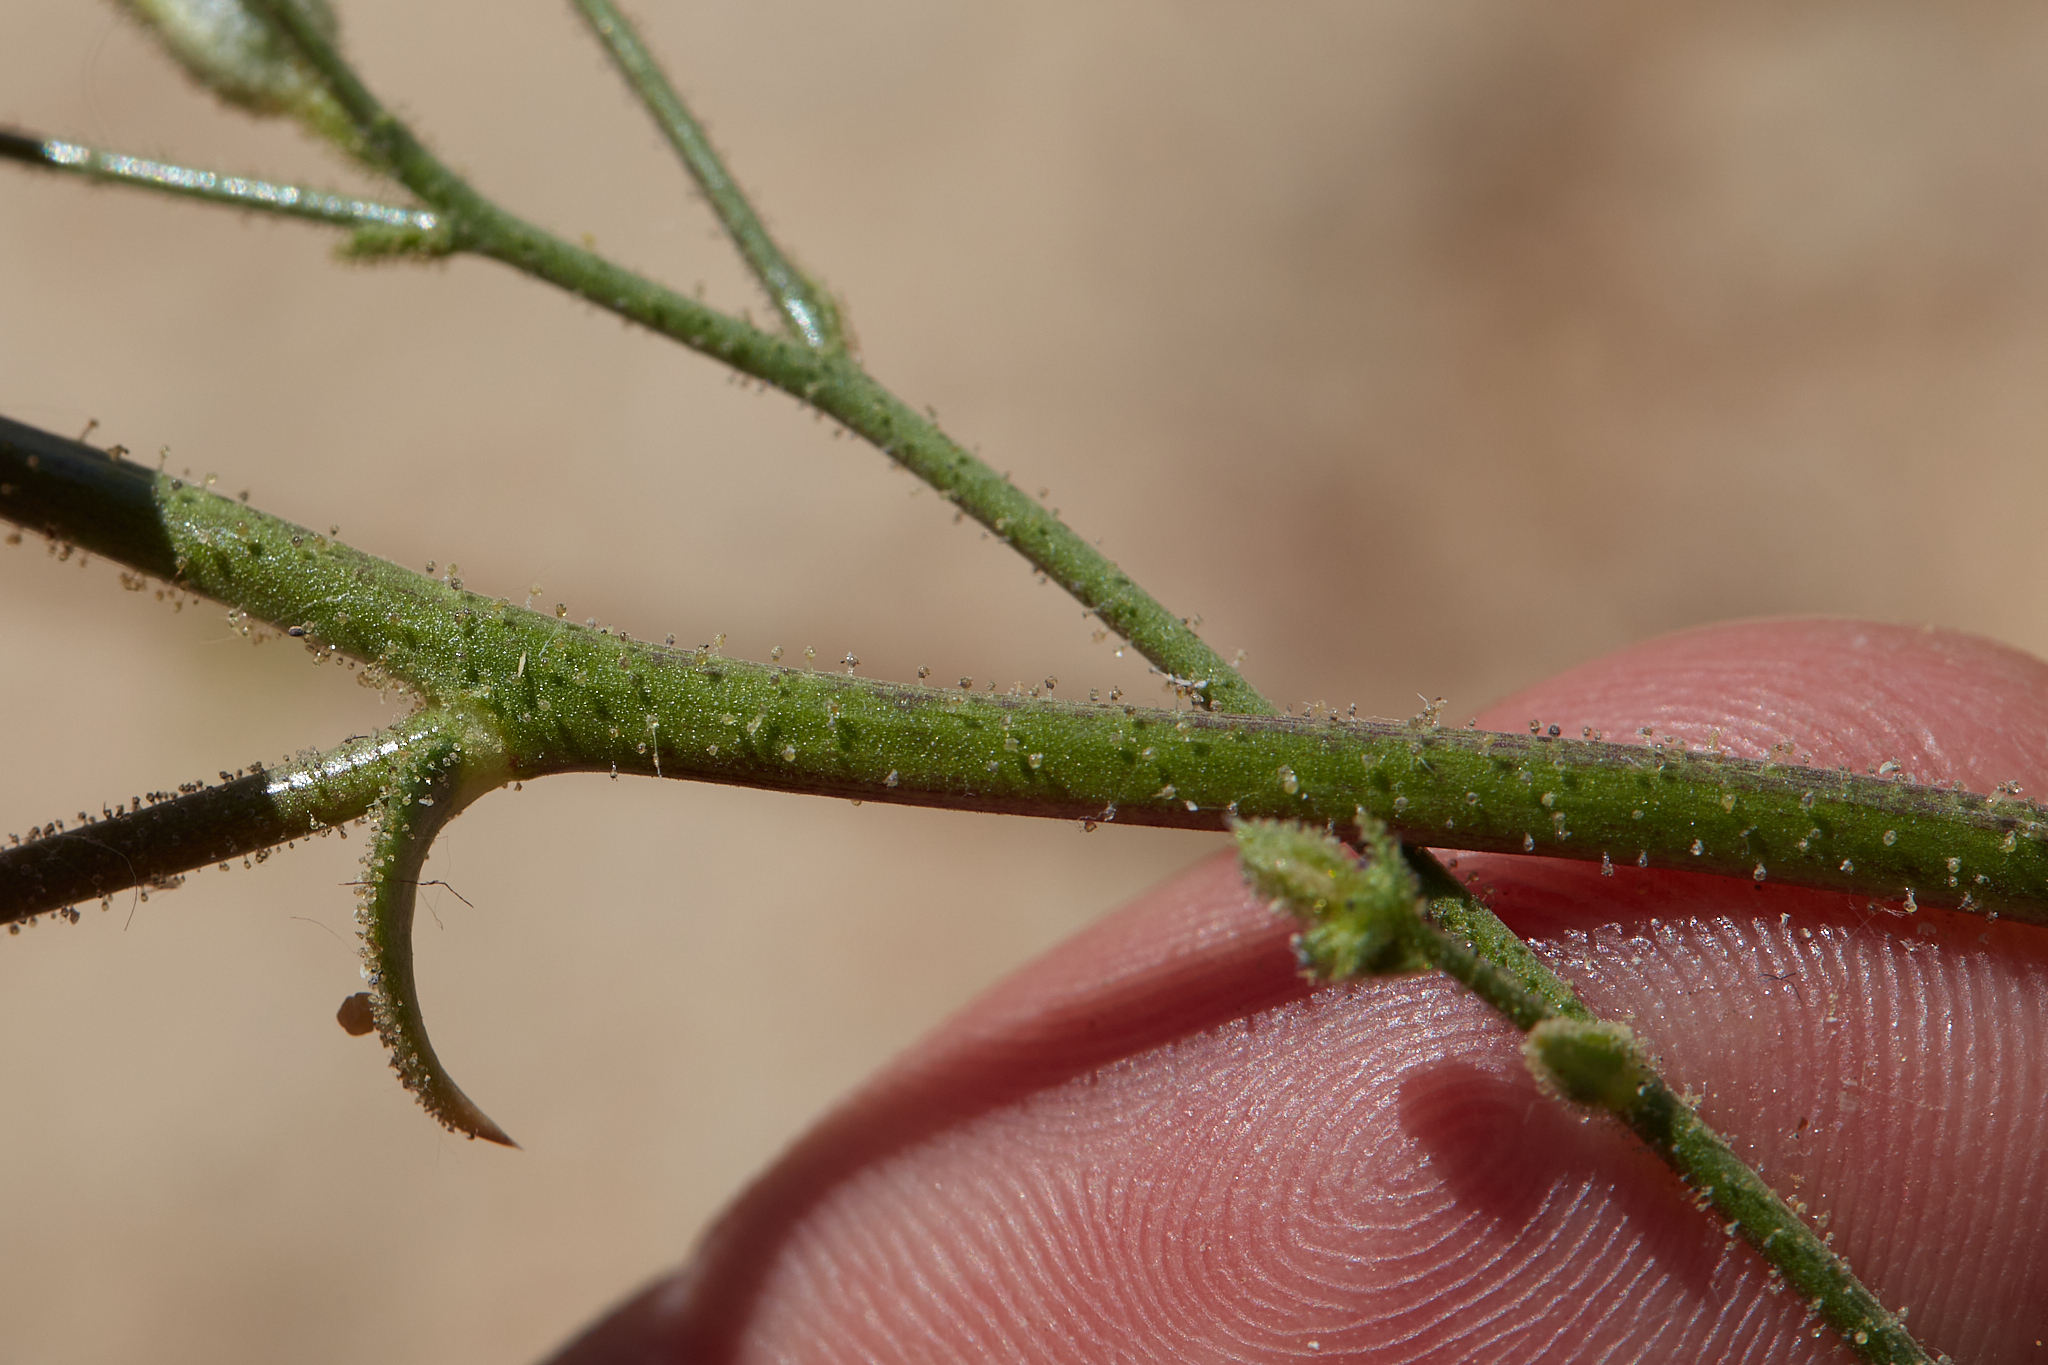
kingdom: Plantae
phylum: Tracheophyta
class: Magnoliopsida
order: Ericales
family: Polemoniaceae
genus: Gilia
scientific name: Gilia latiflora
